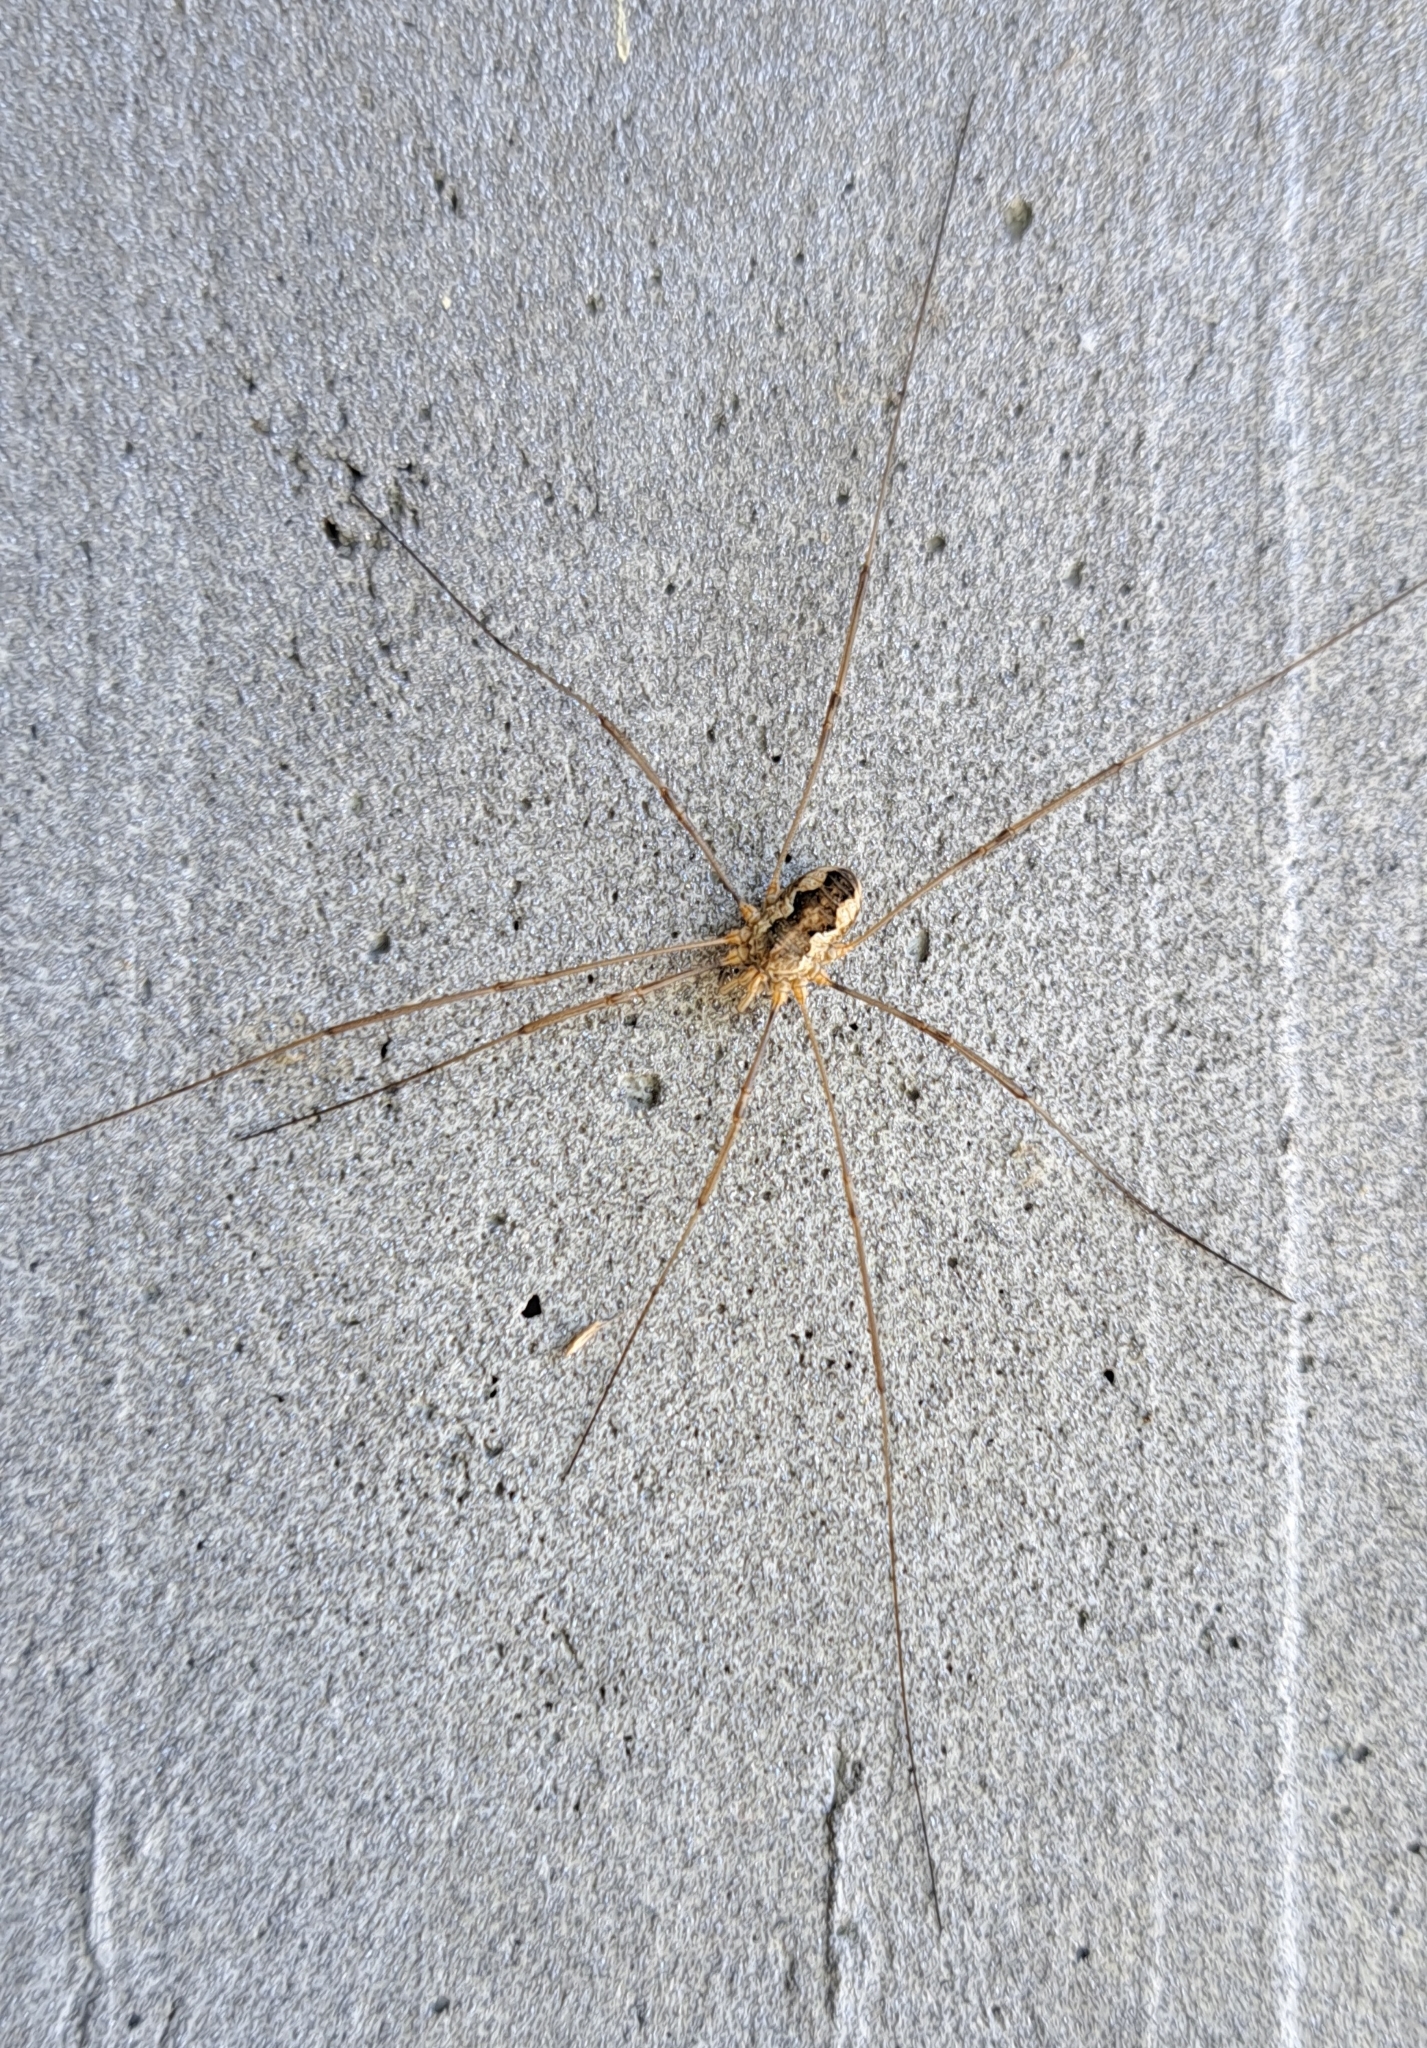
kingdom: Animalia
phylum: Arthropoda
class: Arachnida
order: Opiliones
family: Phalangiidae
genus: Phalangium
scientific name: Phalangium opilio
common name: Daddy longleg
